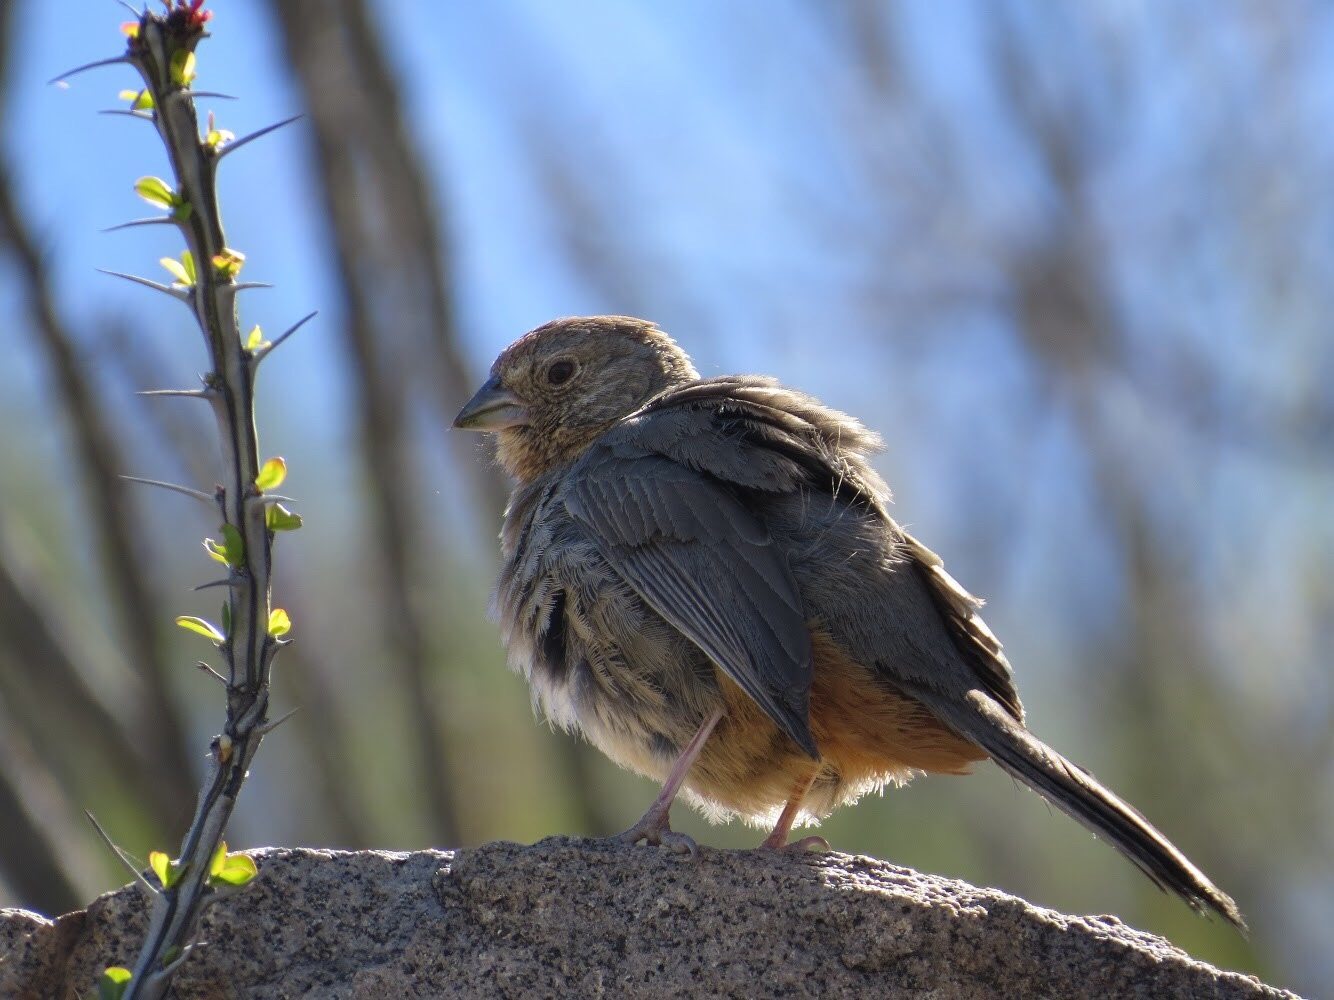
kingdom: Animalia
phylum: Chordata
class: Aves
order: Passeriformes
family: Passerellidae
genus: Melozone
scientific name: Melozone fusca
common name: Canyon towhee
